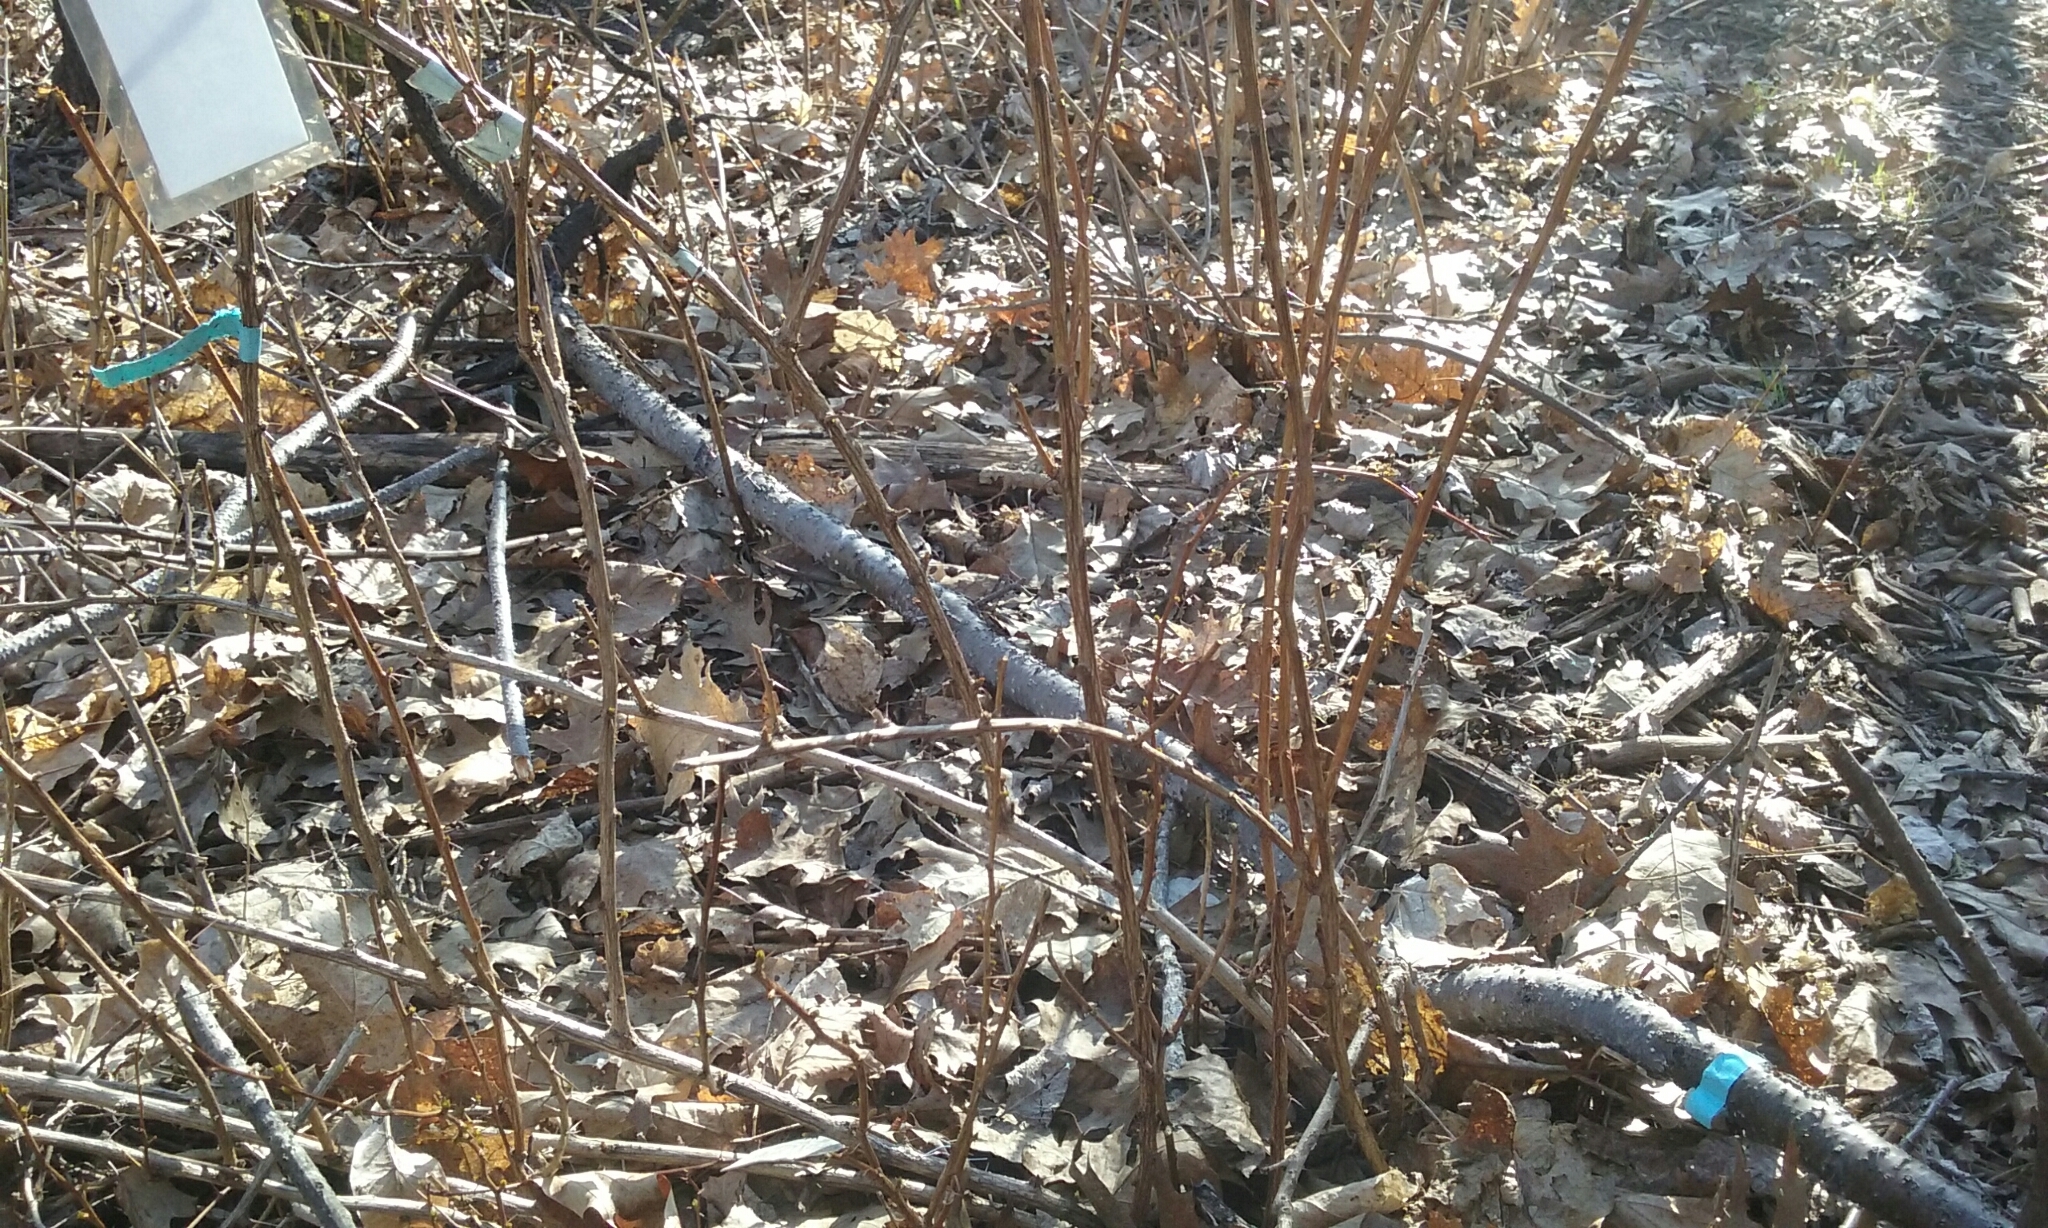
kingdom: Plantae
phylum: Tracheophyta
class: Magnoliopsida
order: Ranunculales
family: Berberidaceae
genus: Berberis
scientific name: Berberis thunbergii
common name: Japanese barberry
